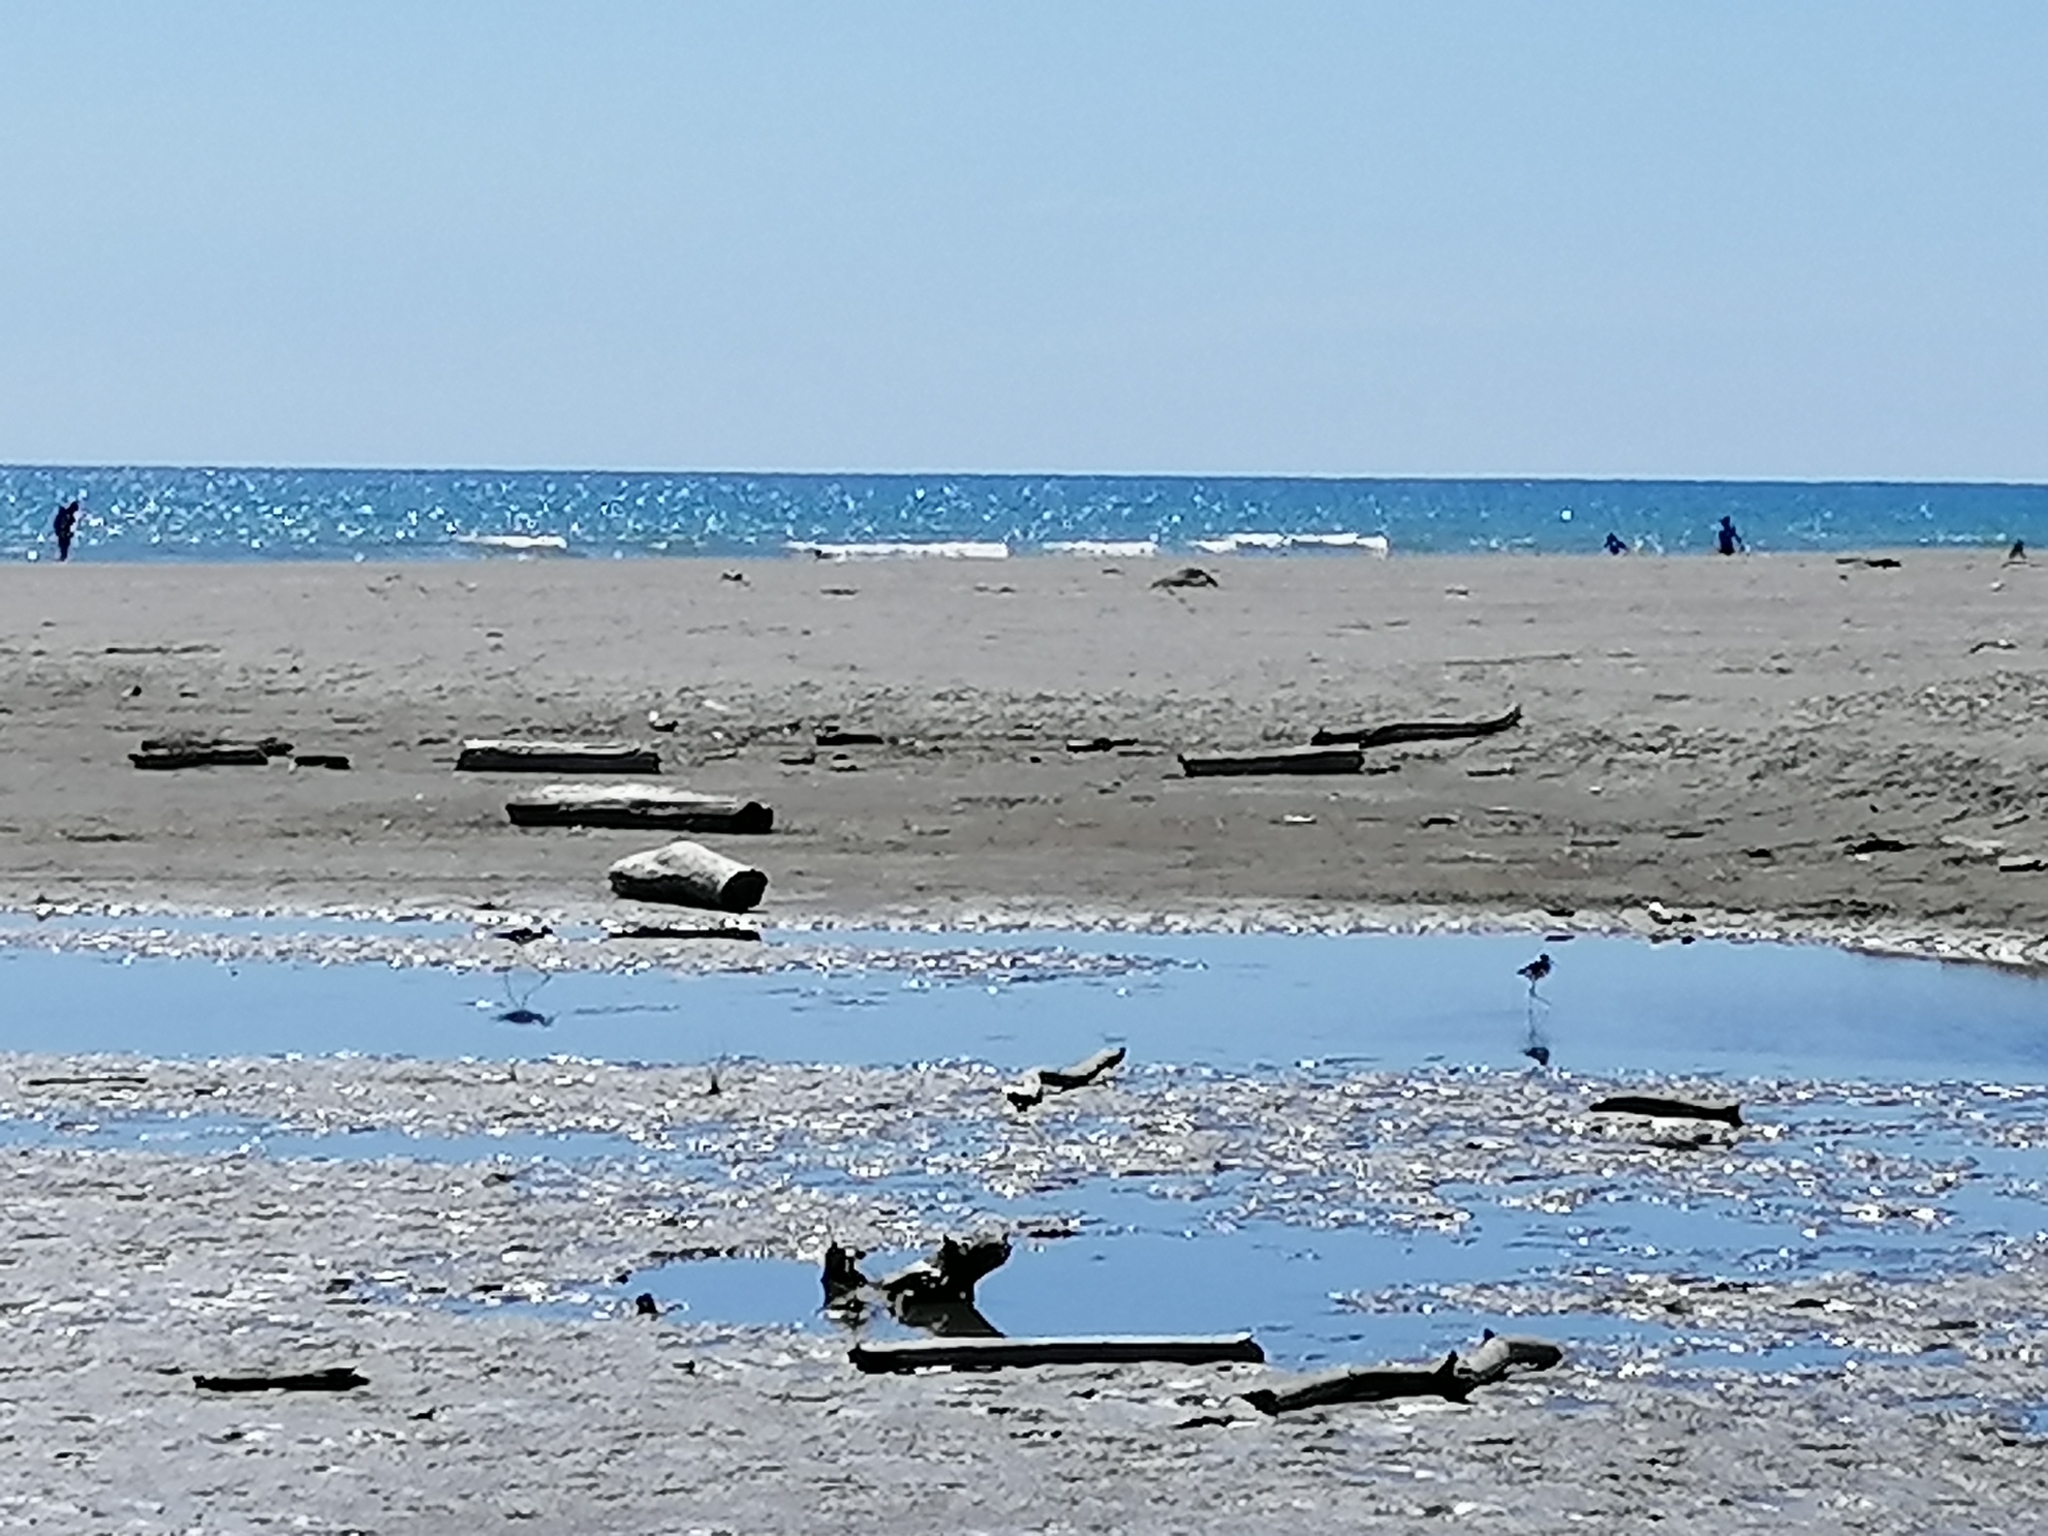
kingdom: Animalia
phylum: Chordata
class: Aves
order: Charadriiformes
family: Recurvirostridae
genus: Himantopus
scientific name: Himantopus leucocephalus
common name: White-headed stilt
